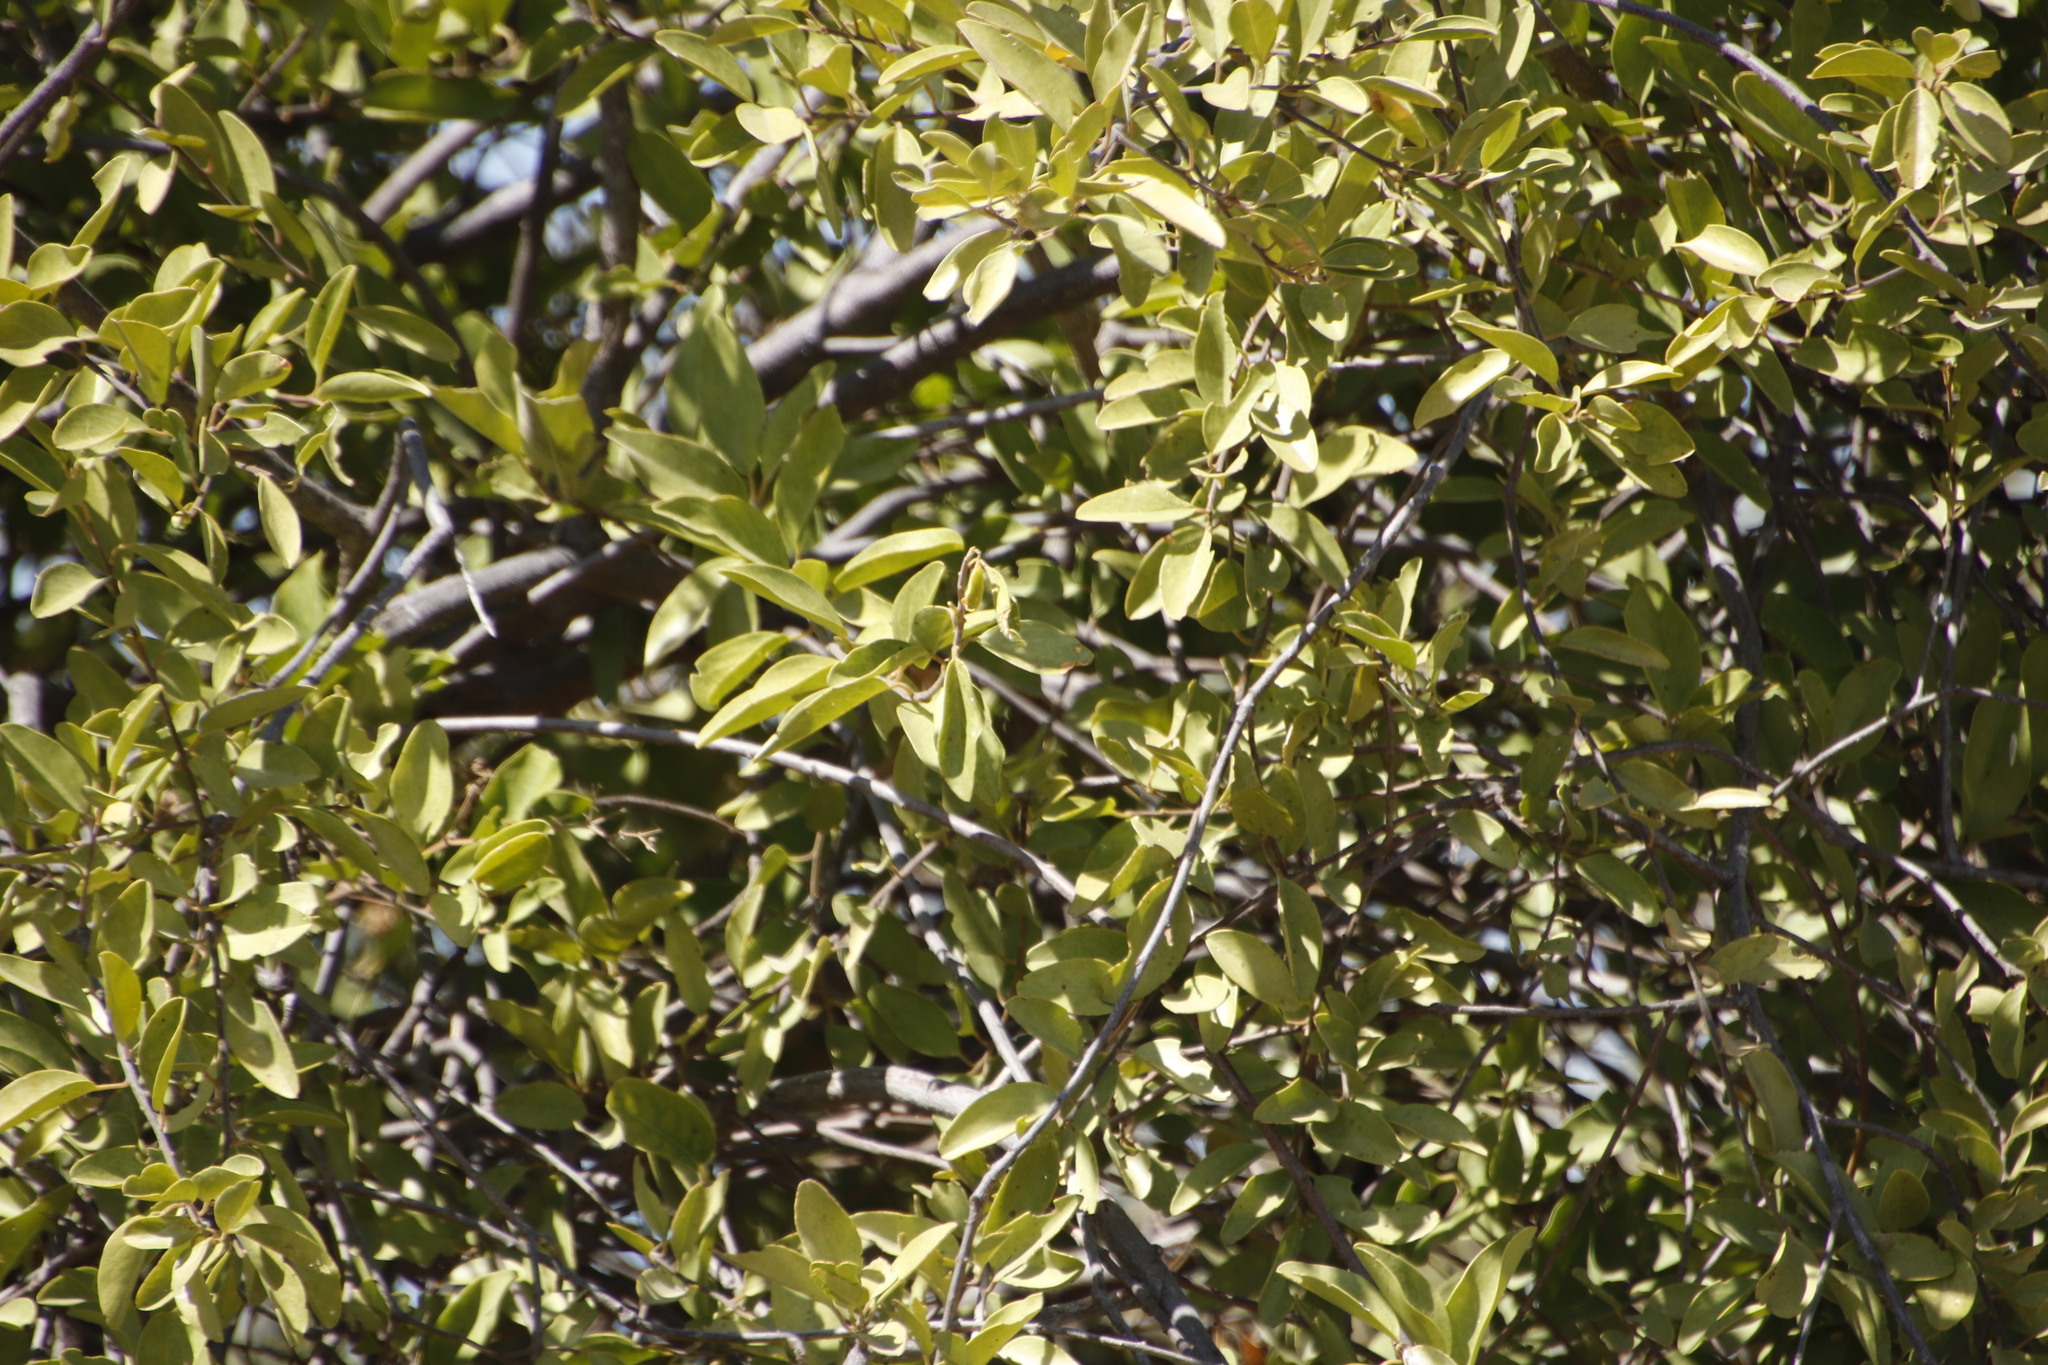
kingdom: Plantae
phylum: Tracheophyta
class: Magnoliopsida
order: Brassicales
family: Salvadoraceae
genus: Salvadora
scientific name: Salvadora persica
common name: Toothbrushtree
